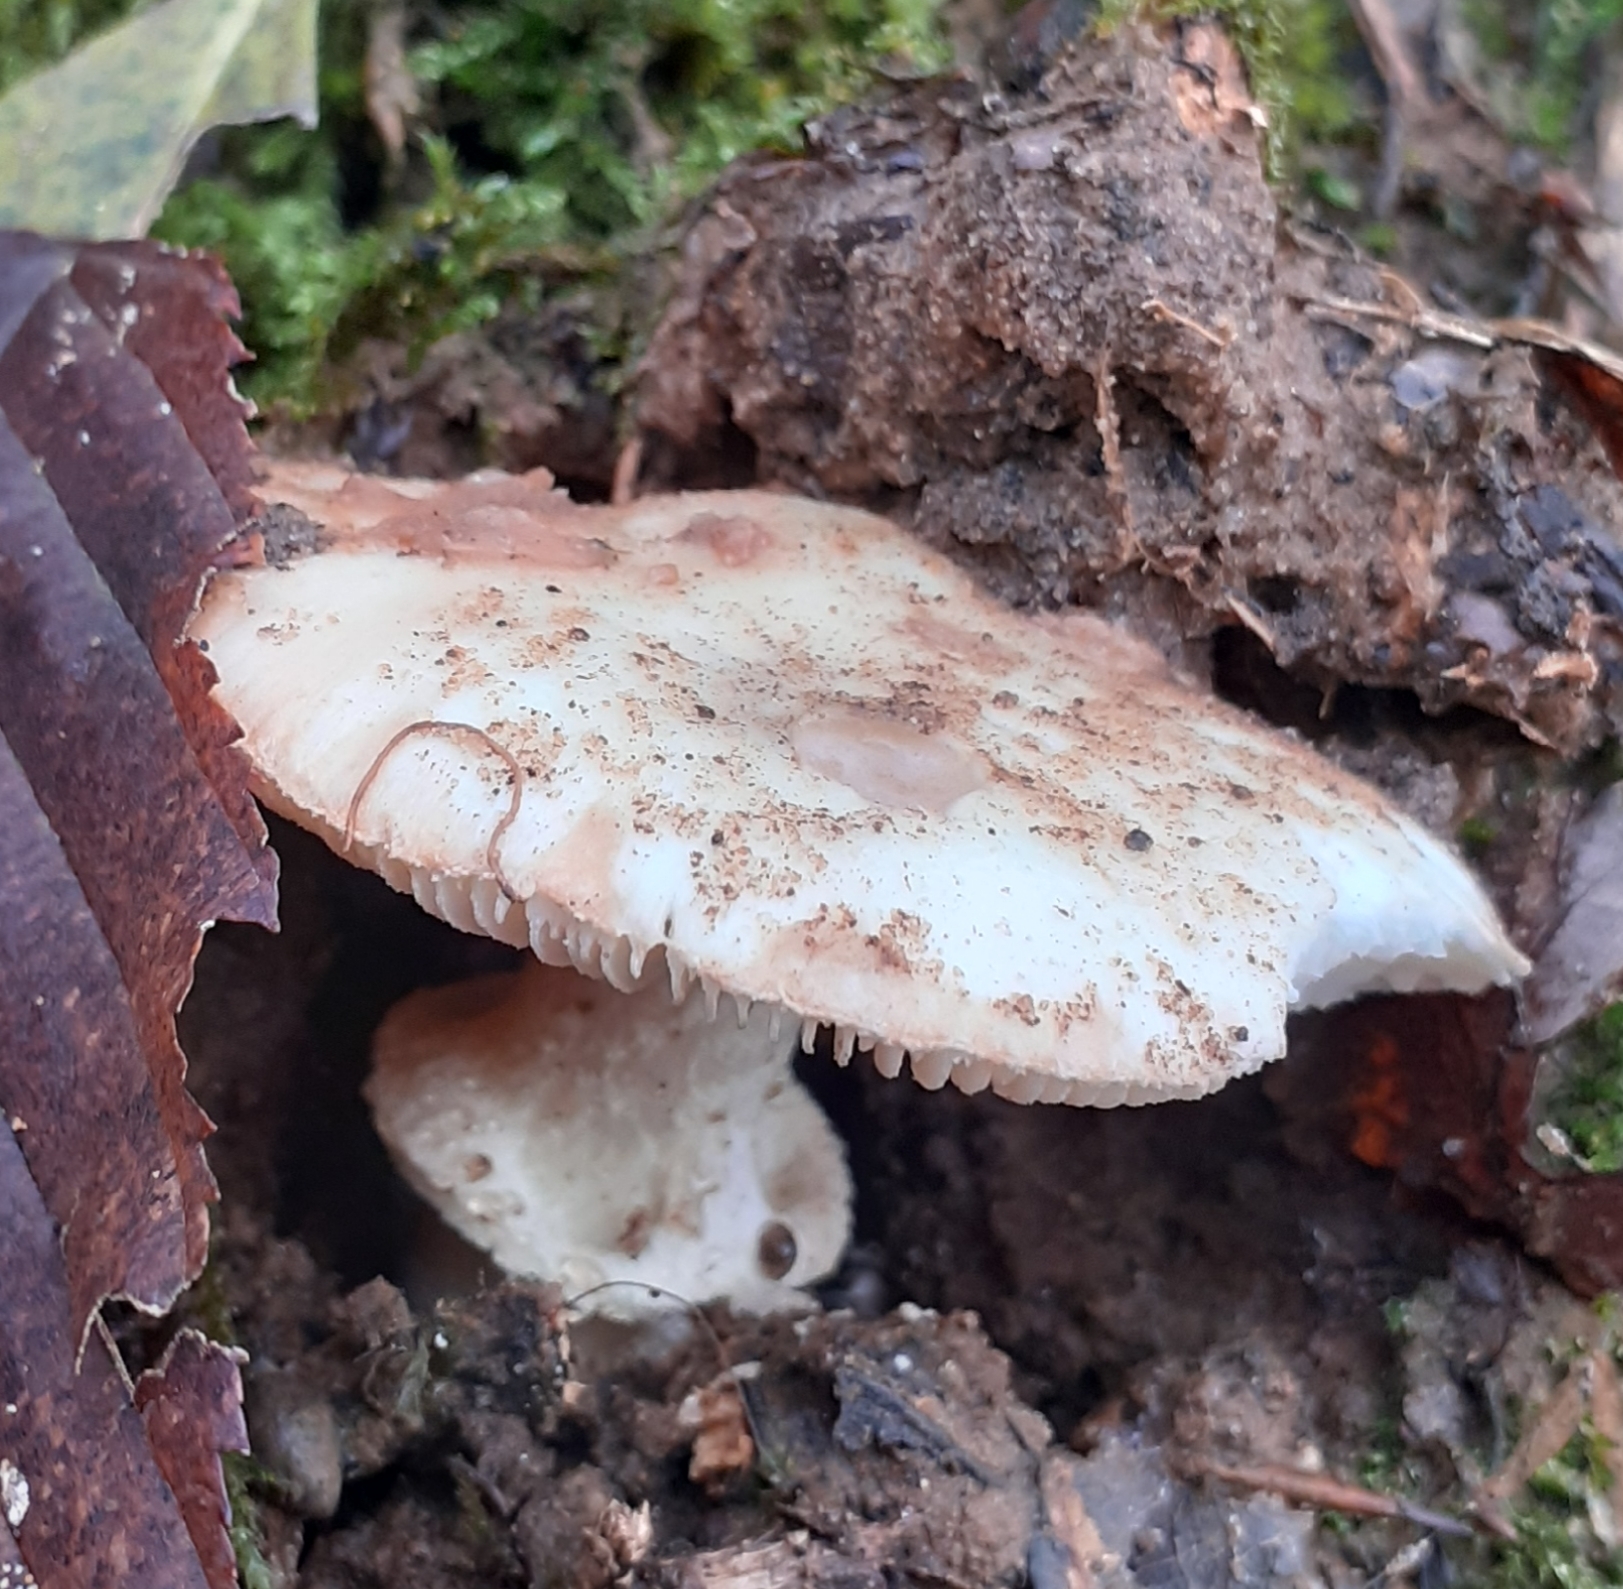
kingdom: Fungi
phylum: Basidiomycota
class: Agaricomycetes
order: Agaricales
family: Amanitaceae
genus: Amanita
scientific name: Amanita citrina
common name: False death-cap
